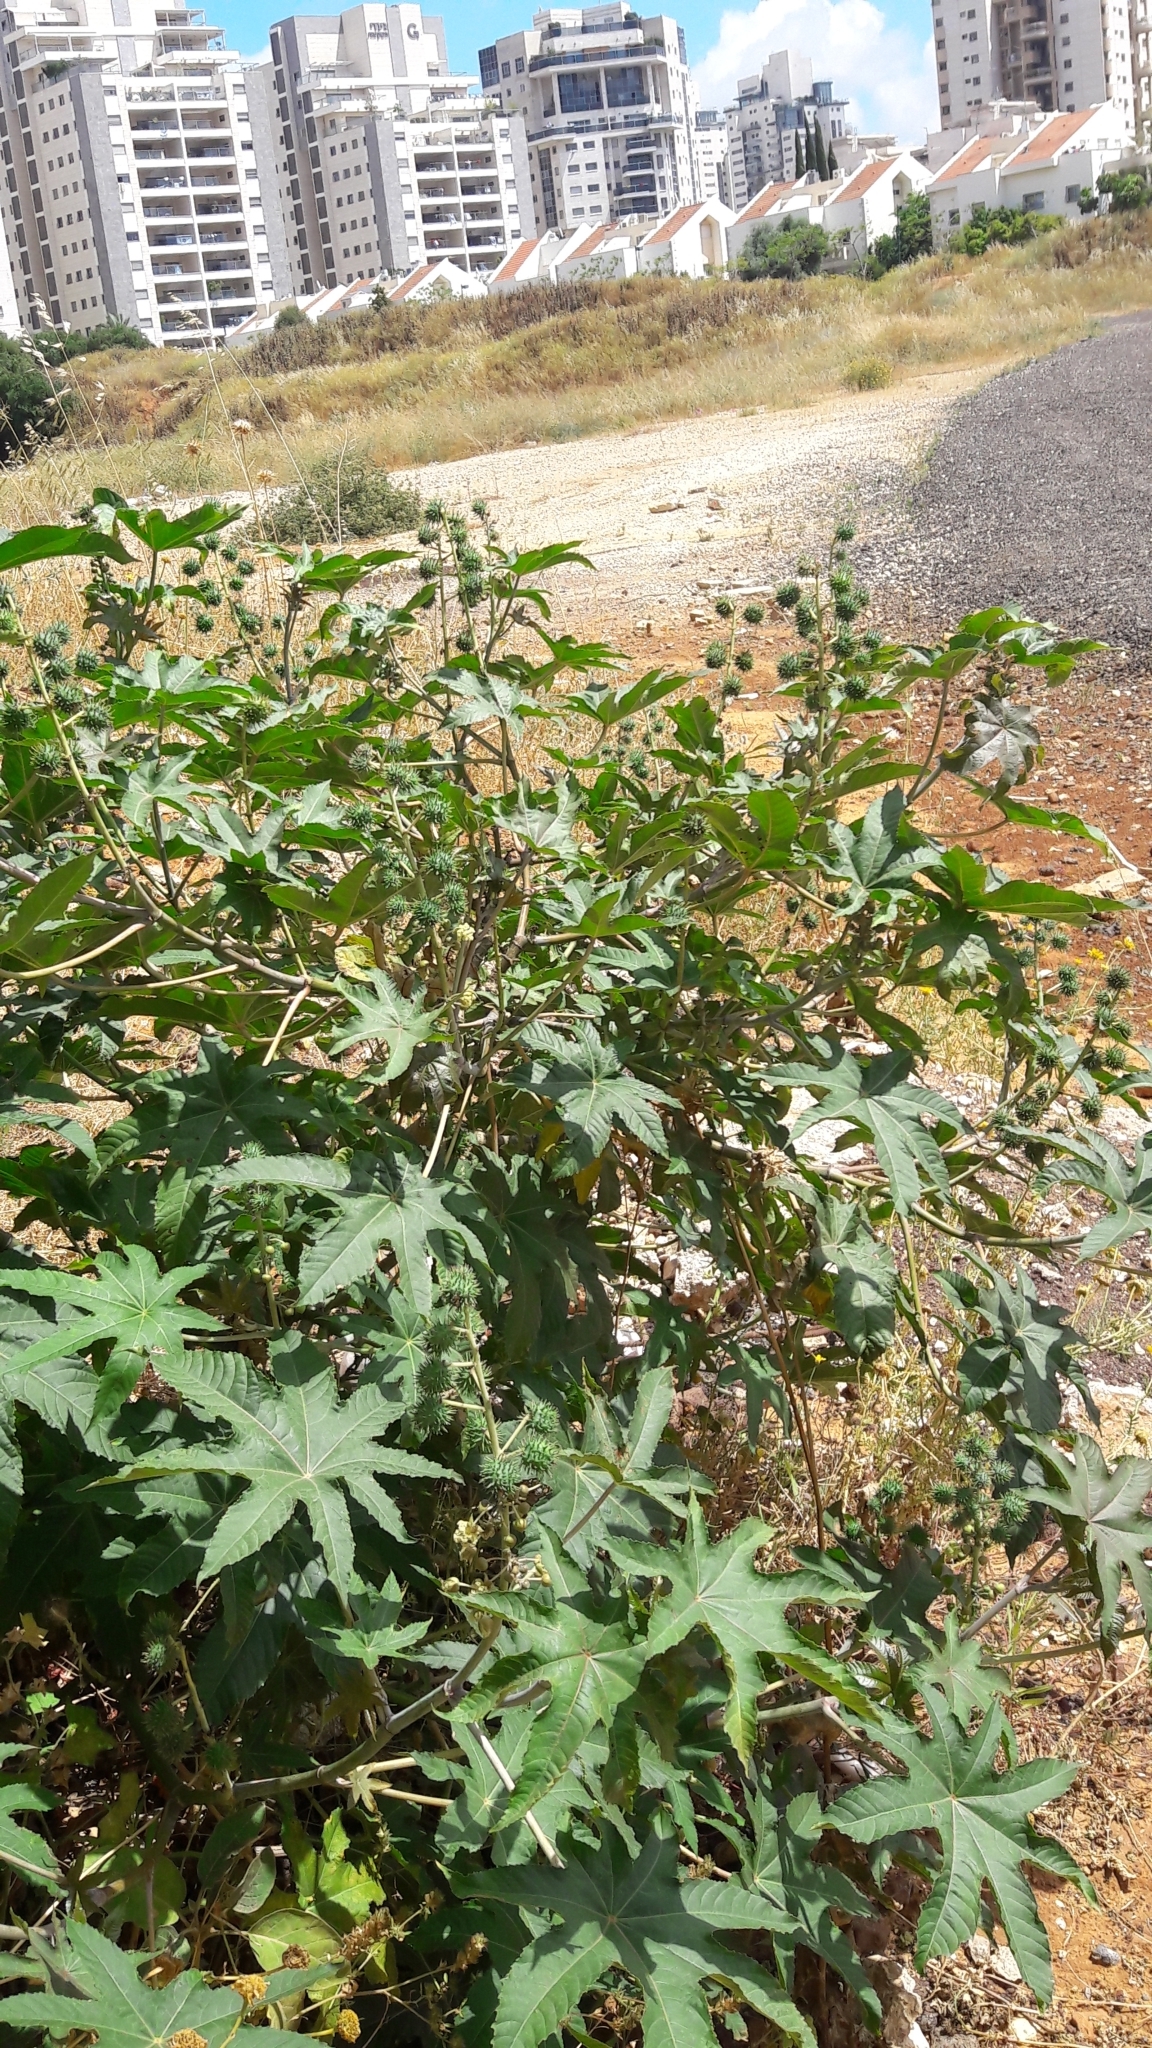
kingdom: Plantae
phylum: Tracheophyta
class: Magnoliopsida
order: Malpighiales
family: Euphorbiaceae
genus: Ricinus
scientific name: Ricinus communis
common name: Castor-oil-plant
